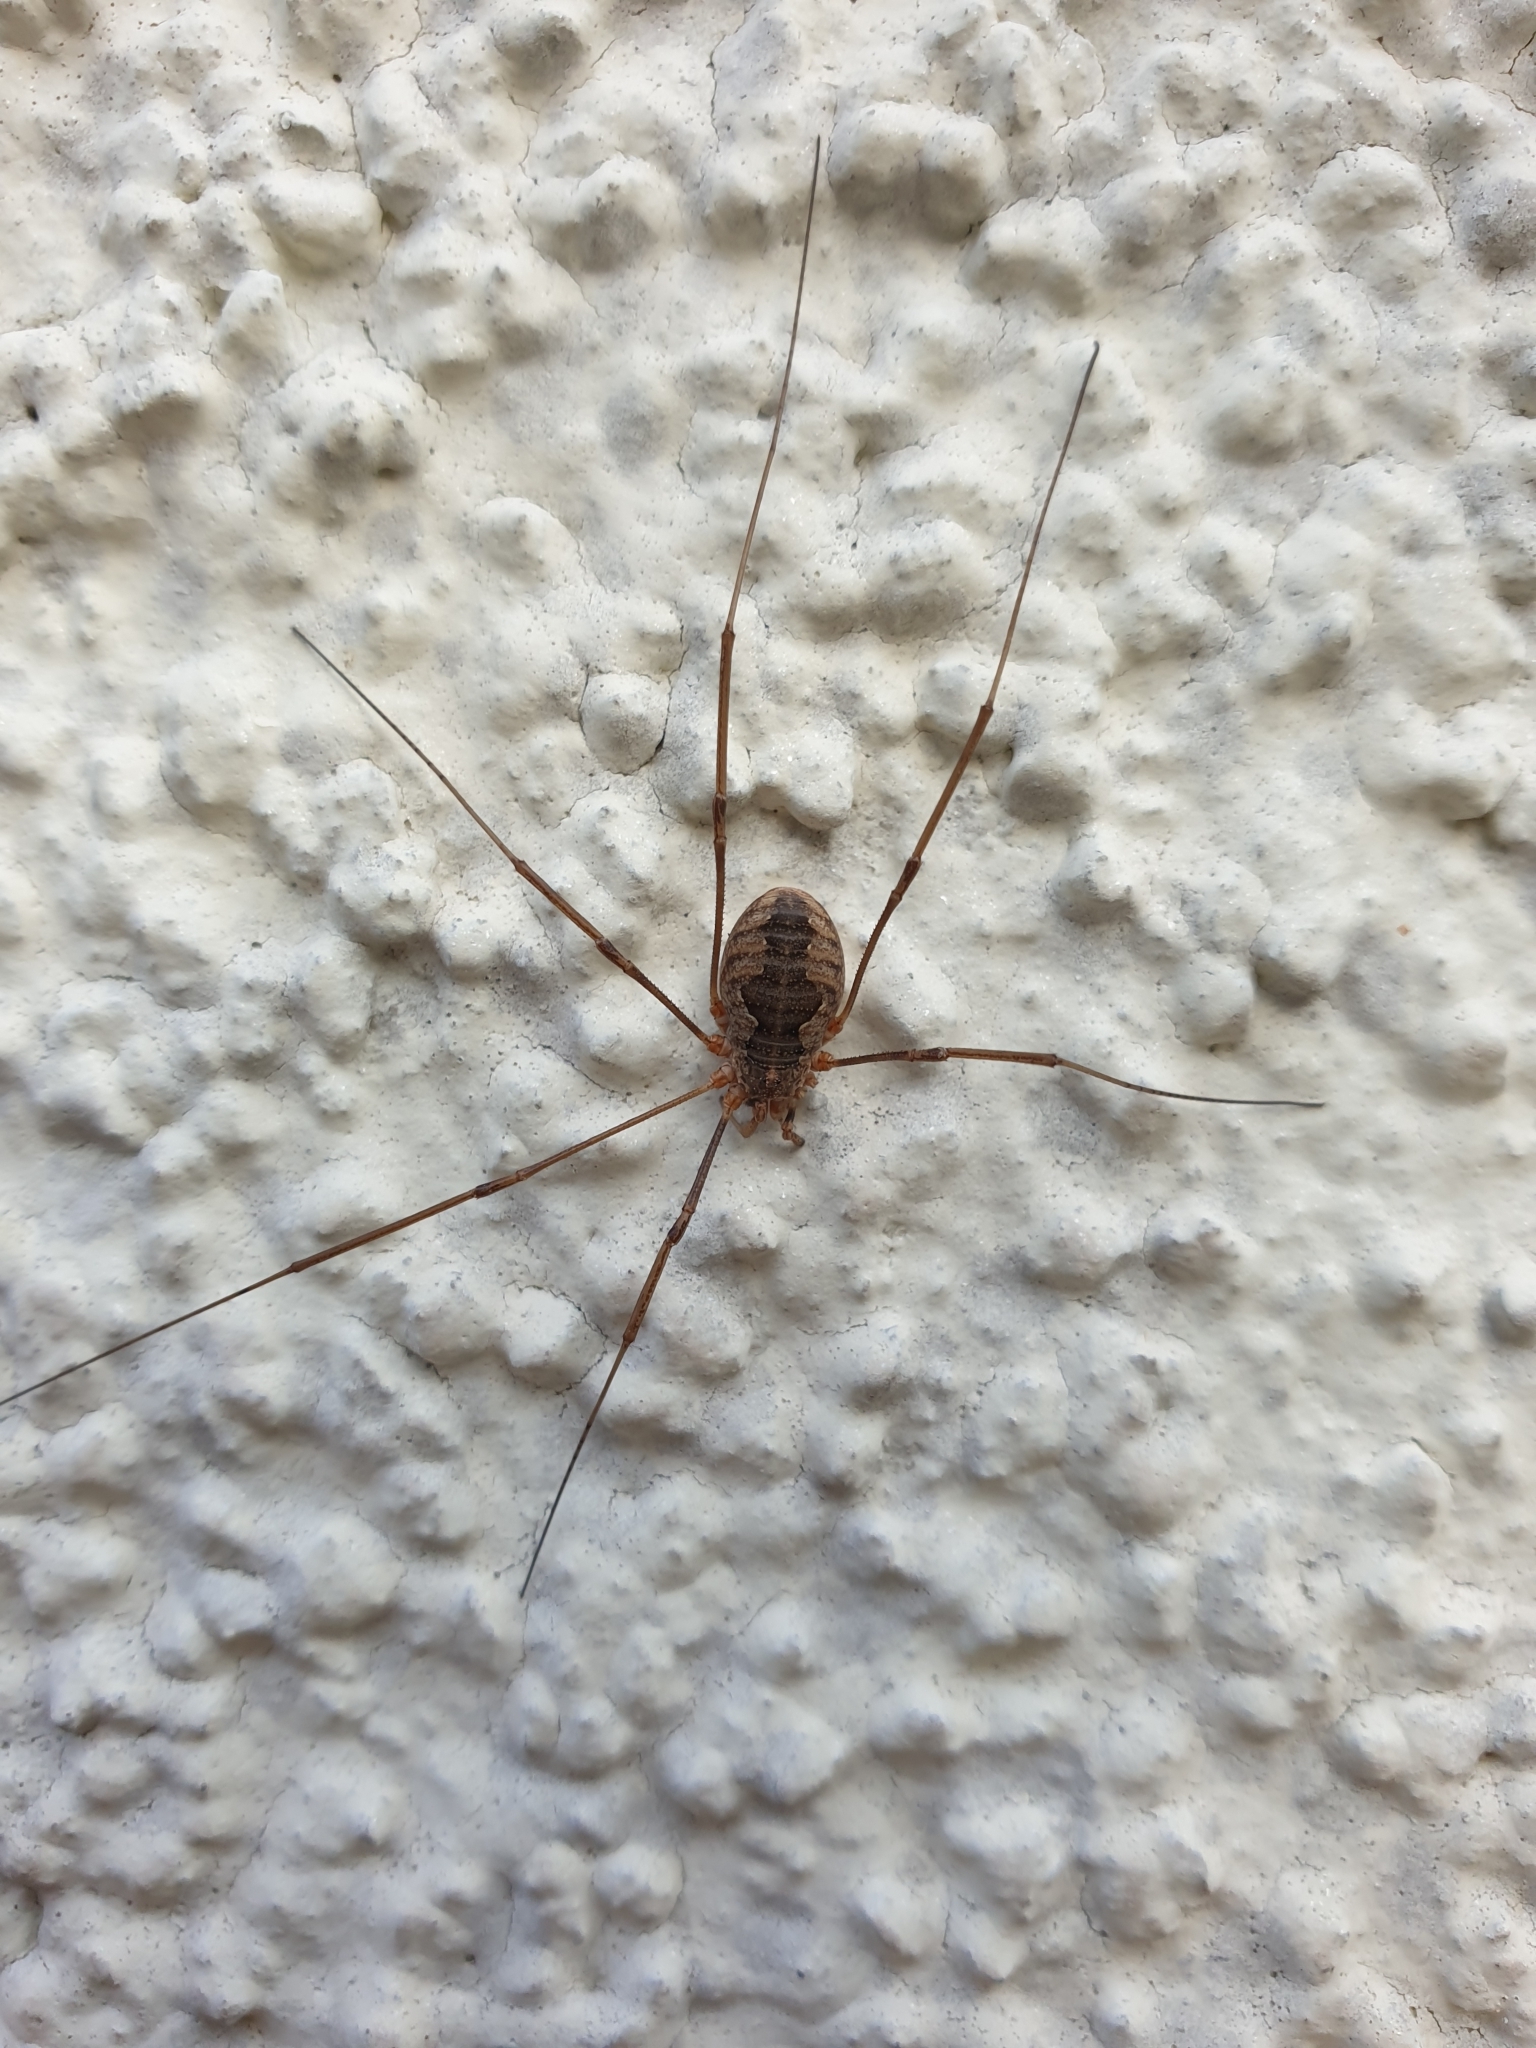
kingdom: Animalia
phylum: Arthropoda
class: Arachnida
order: Opiliones
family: Phalangiidae
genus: Phalangium
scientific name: Phalangium opilio
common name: Daddy longleg
